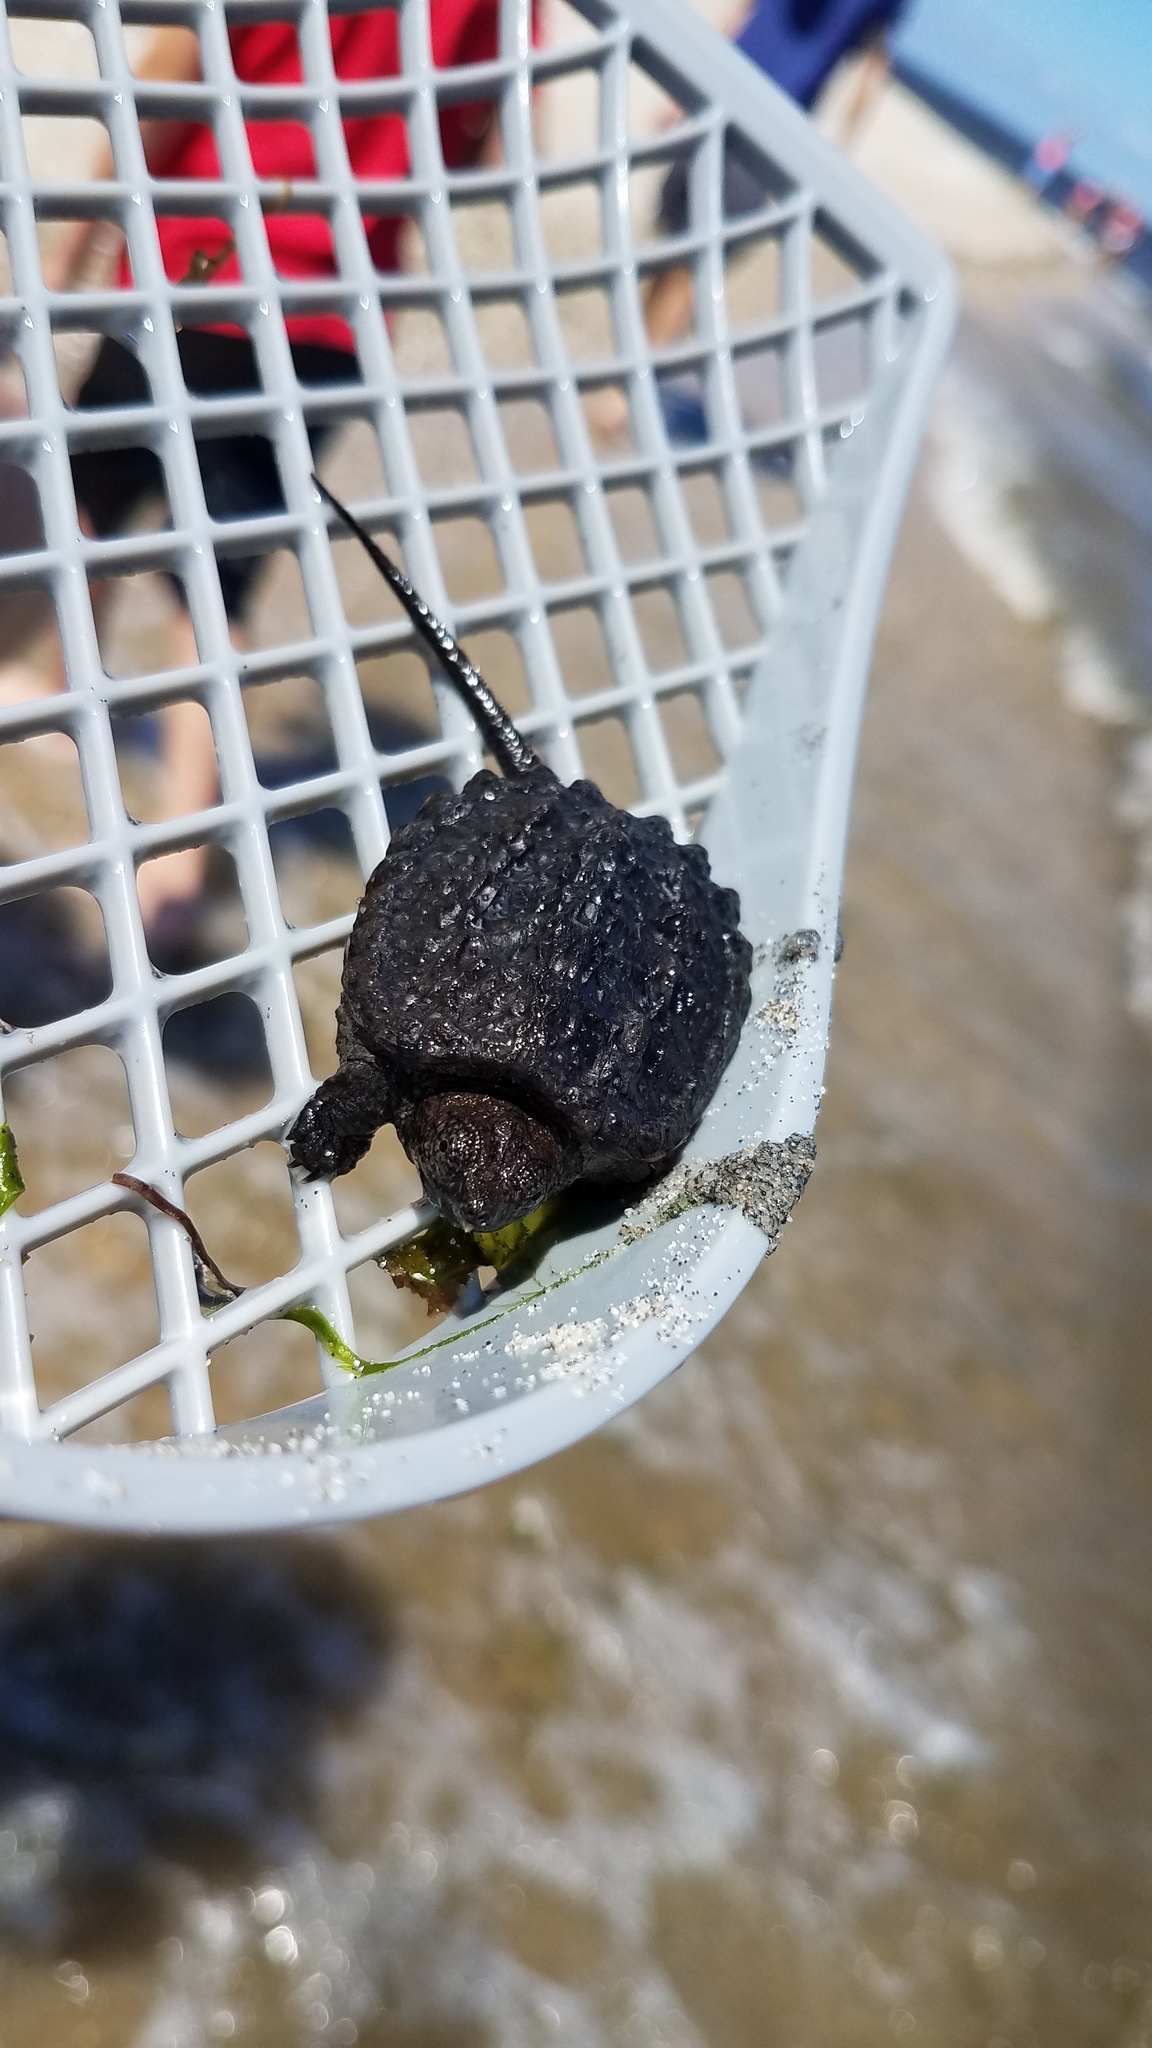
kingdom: Animalia
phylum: Chordata
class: Testudines
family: Chelydridae
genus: Chelydra
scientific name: Chelydra serpentina
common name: Common snapping turtle
